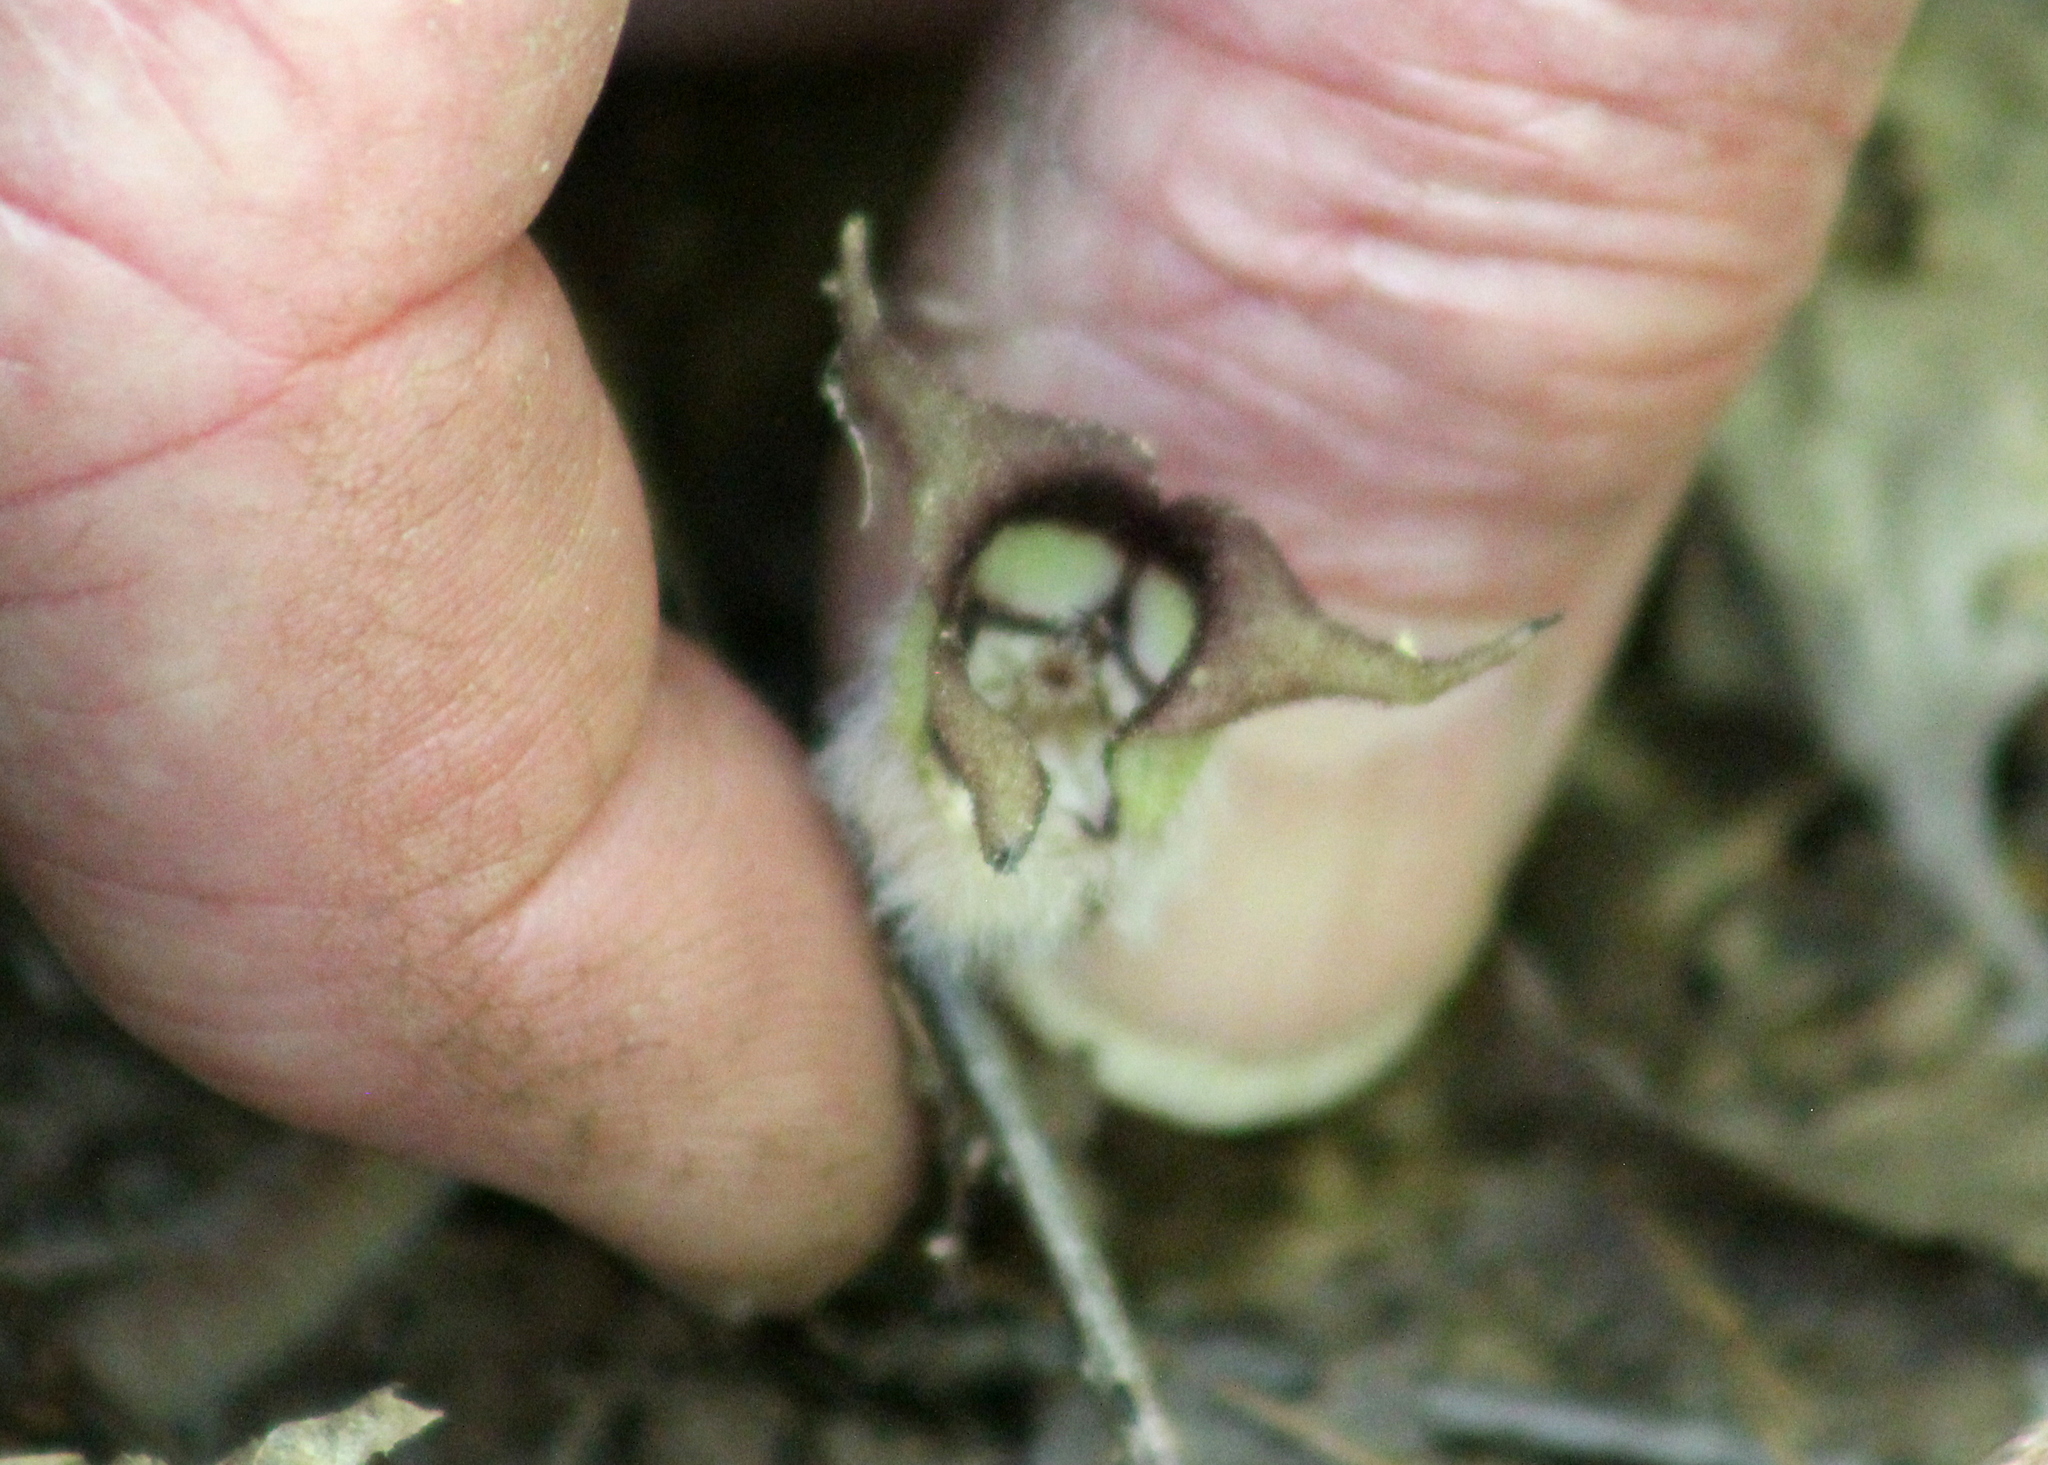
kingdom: Plantae
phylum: Tracheophyta
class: Magnoliopsida
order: Piperales
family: Aristolochiaceae
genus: Asarum
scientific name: Asarum canadense
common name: Wild ginger
